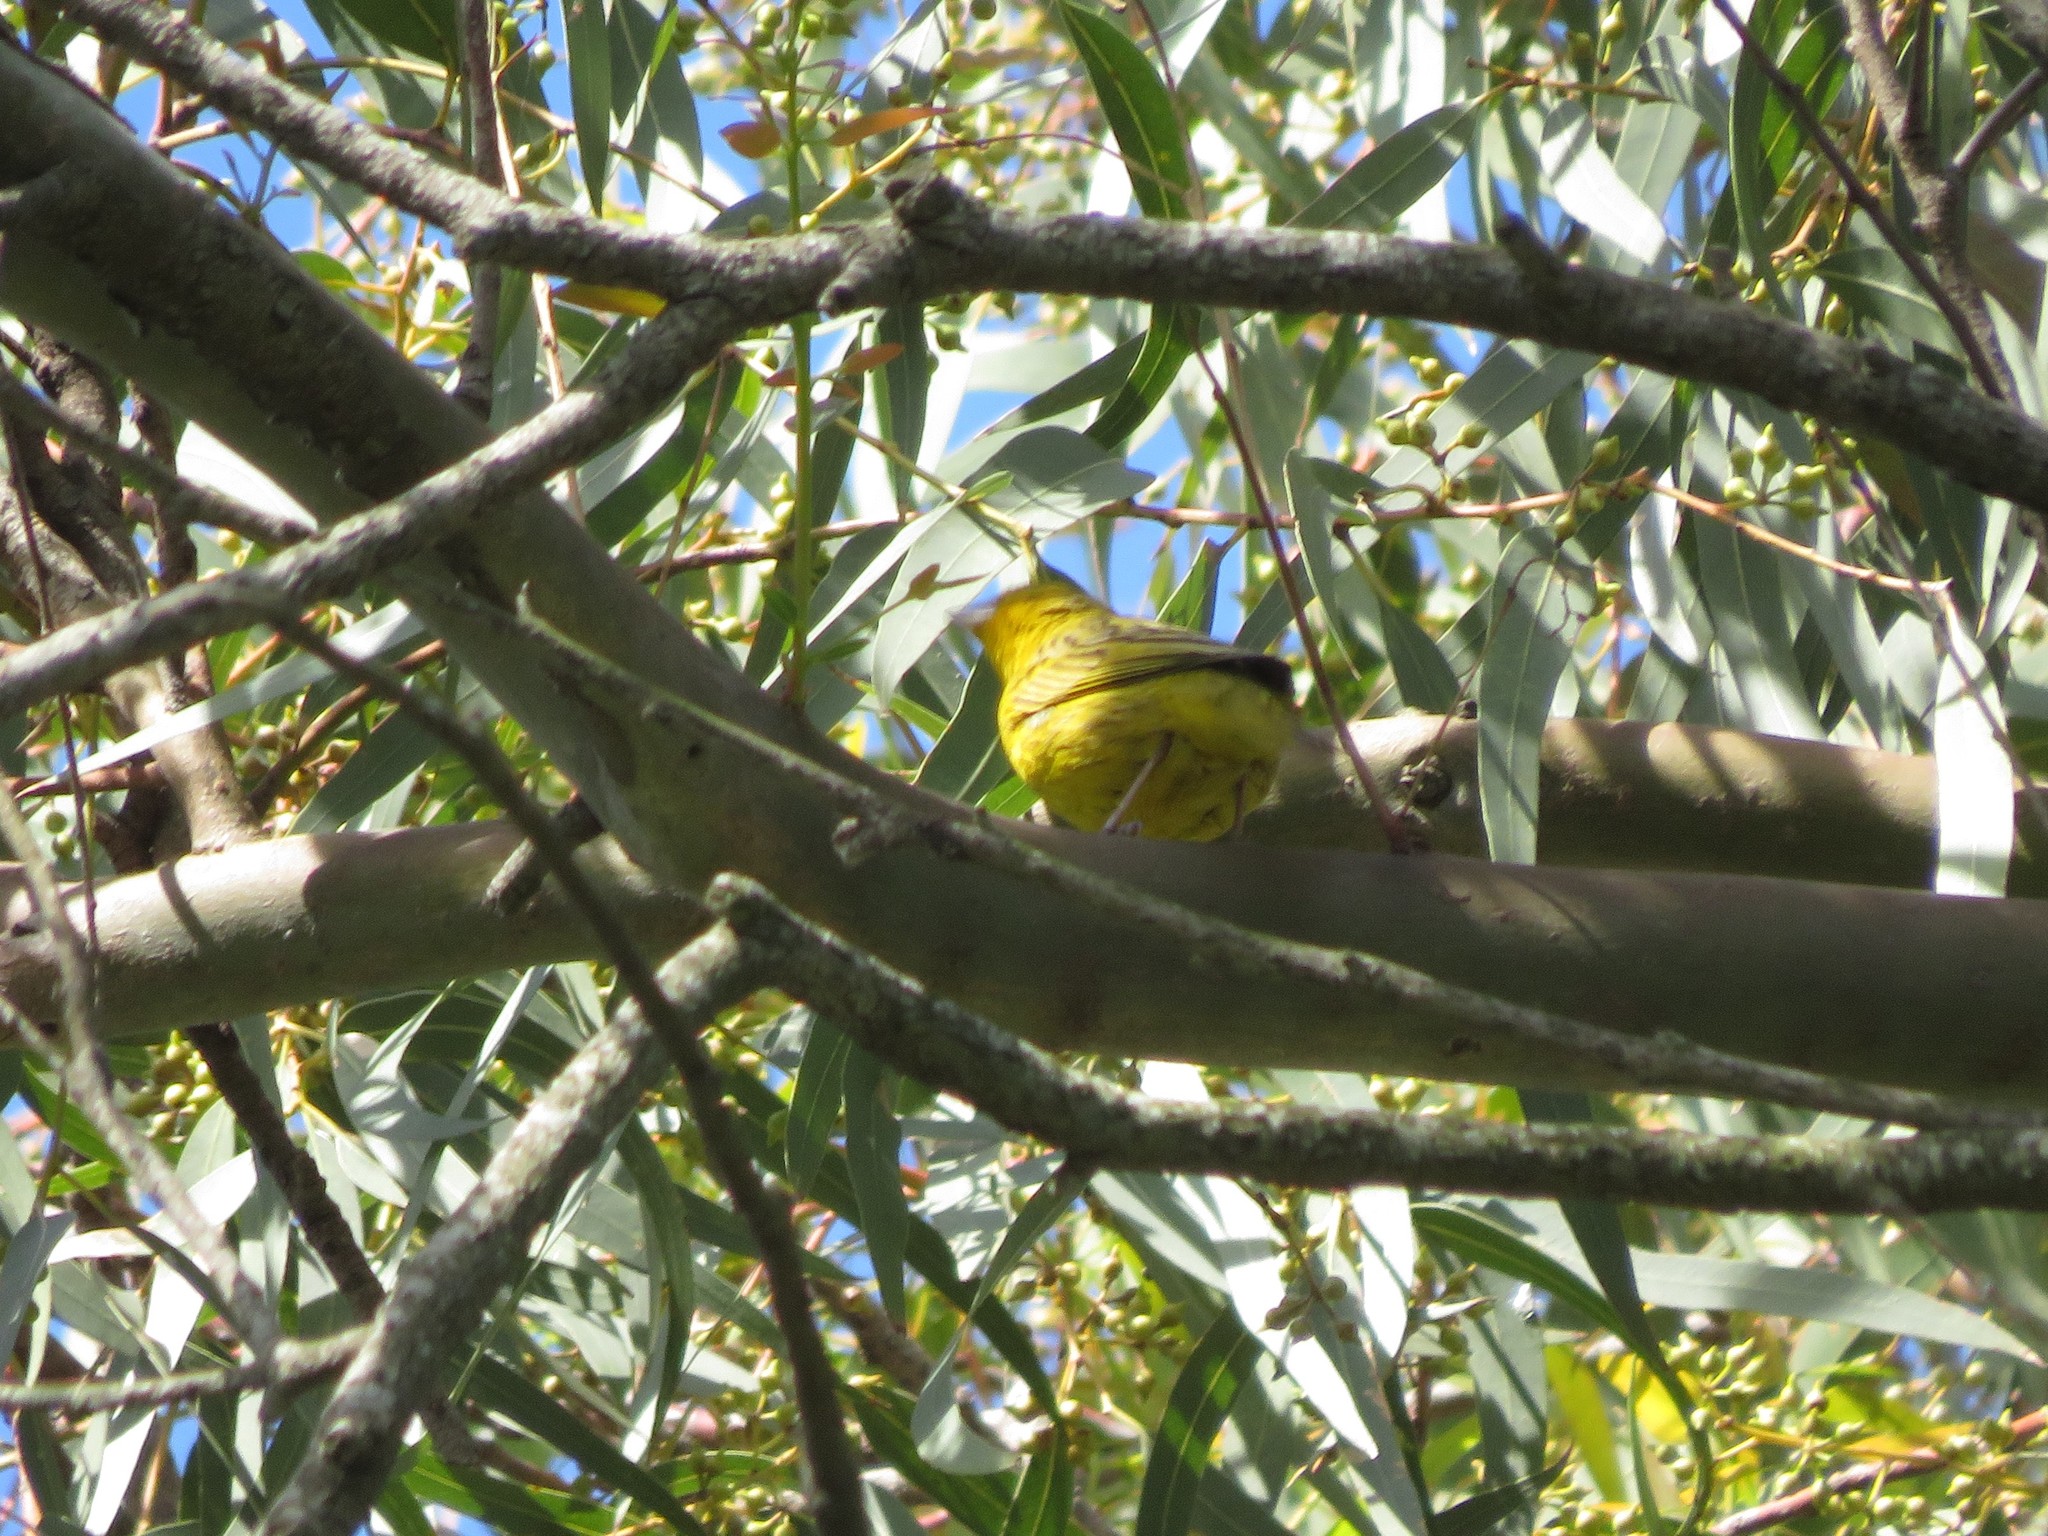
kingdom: Animalia
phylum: Chordata
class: Aves
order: Passeriformes
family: Thraupidae
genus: Sicalis
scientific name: Sicalis flaveola
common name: Saffron finch
